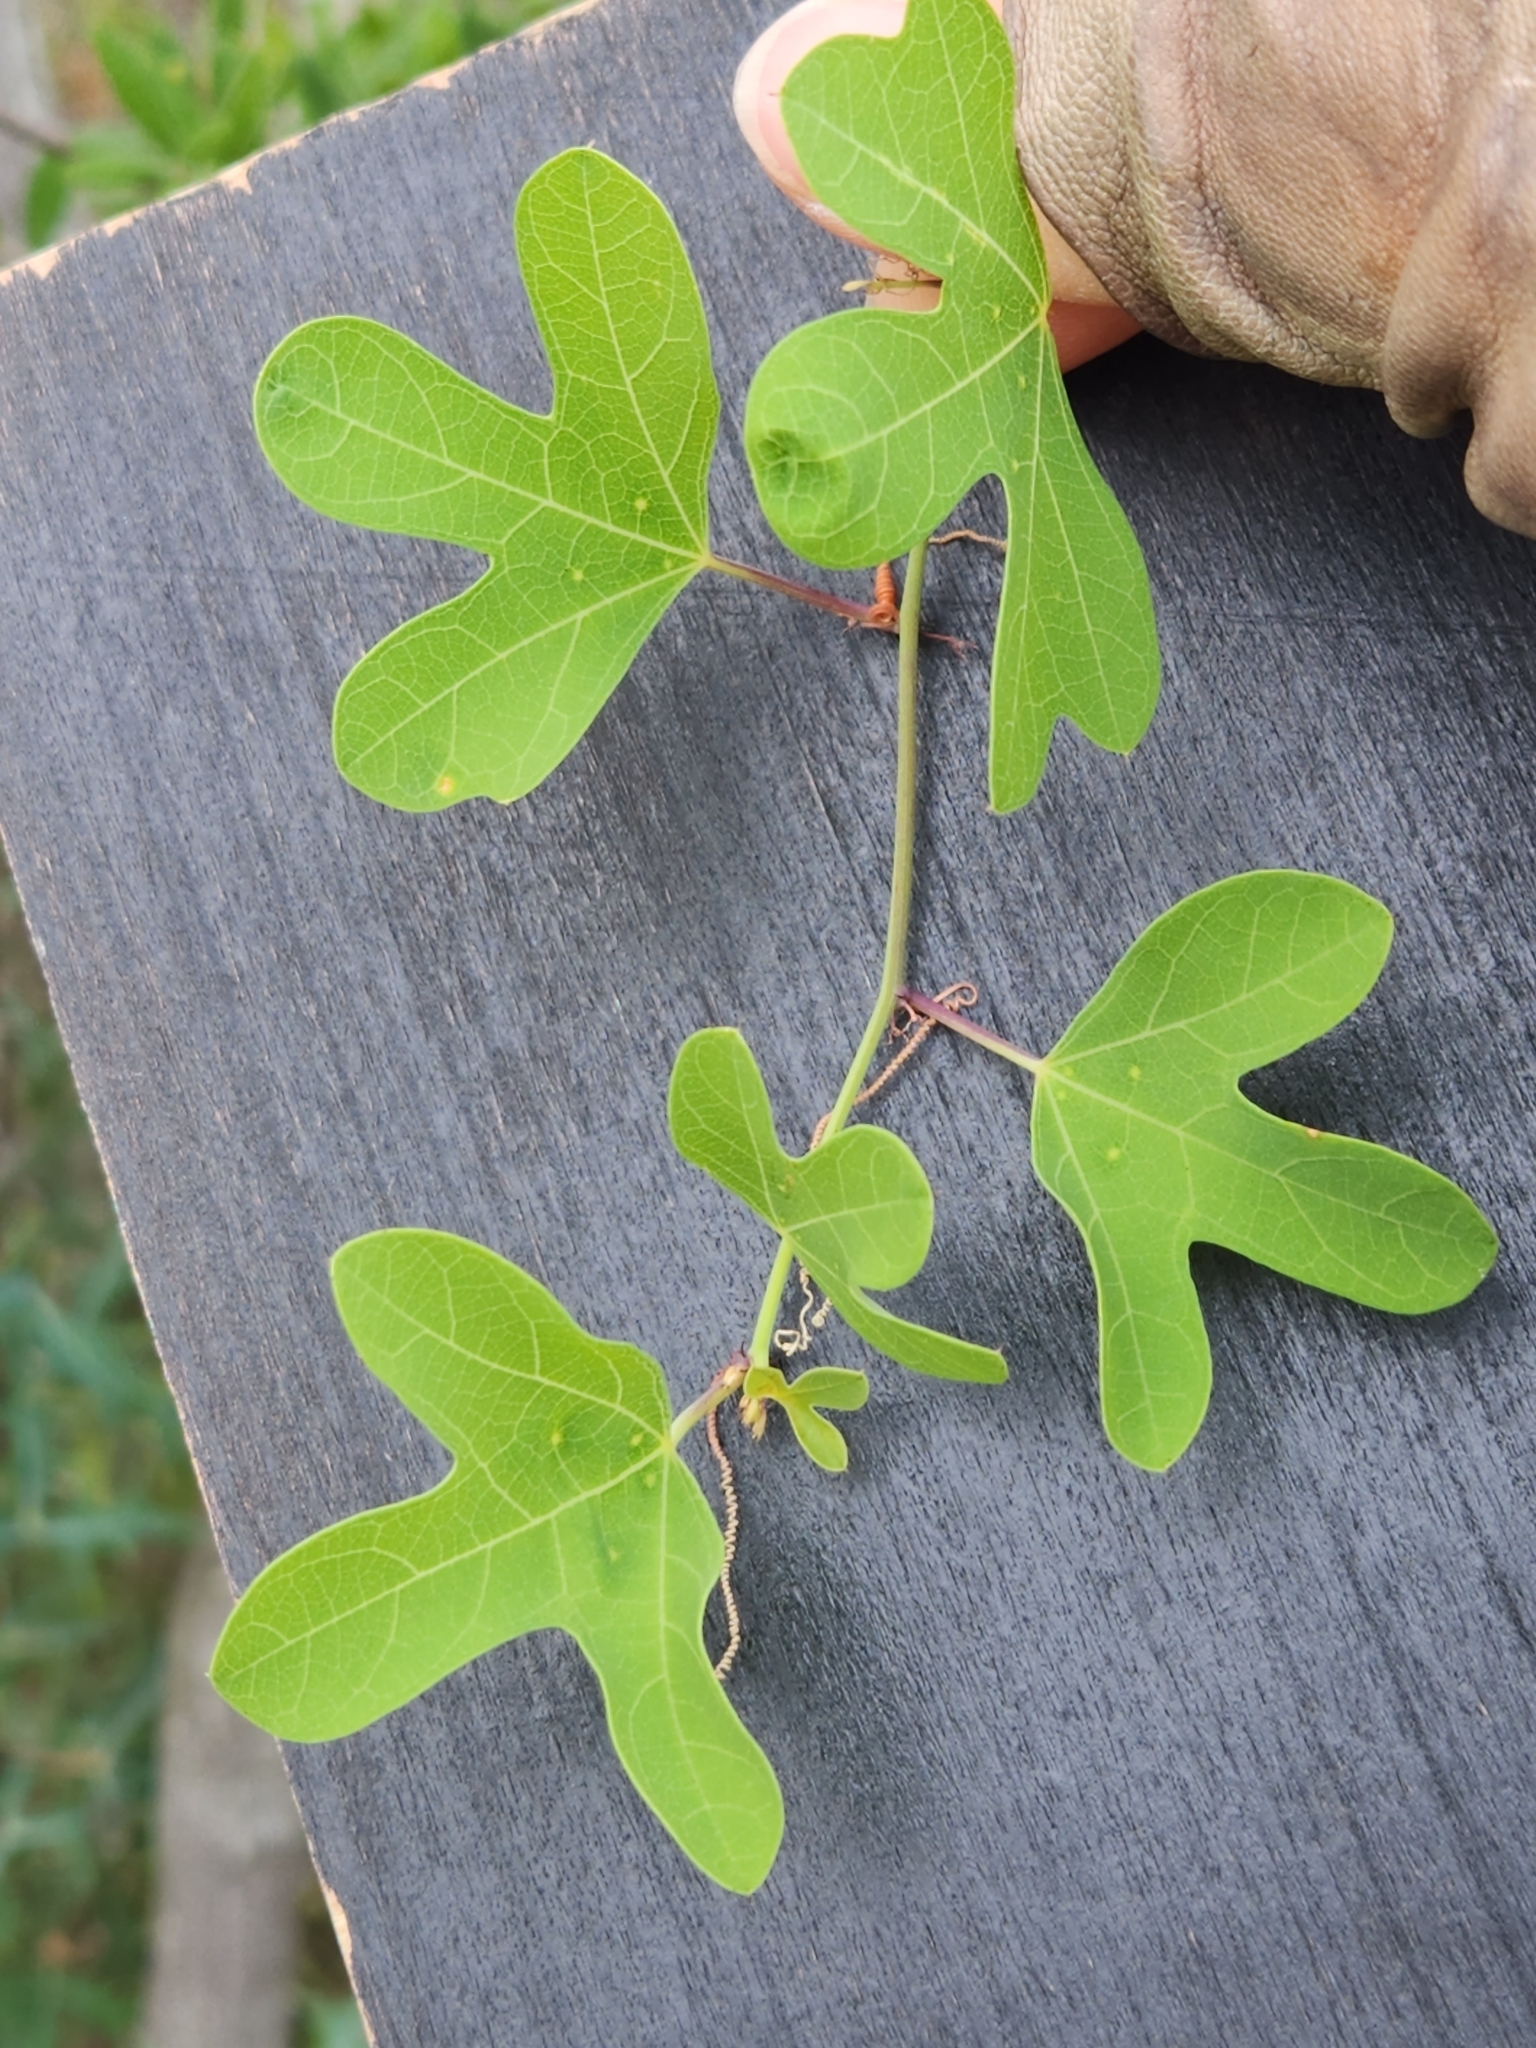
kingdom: Plantae
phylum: Tracheophyta
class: Magnoliopsida
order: Malpighiales
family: Passifloraceae
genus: Passiflora
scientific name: Passiflora affinis
